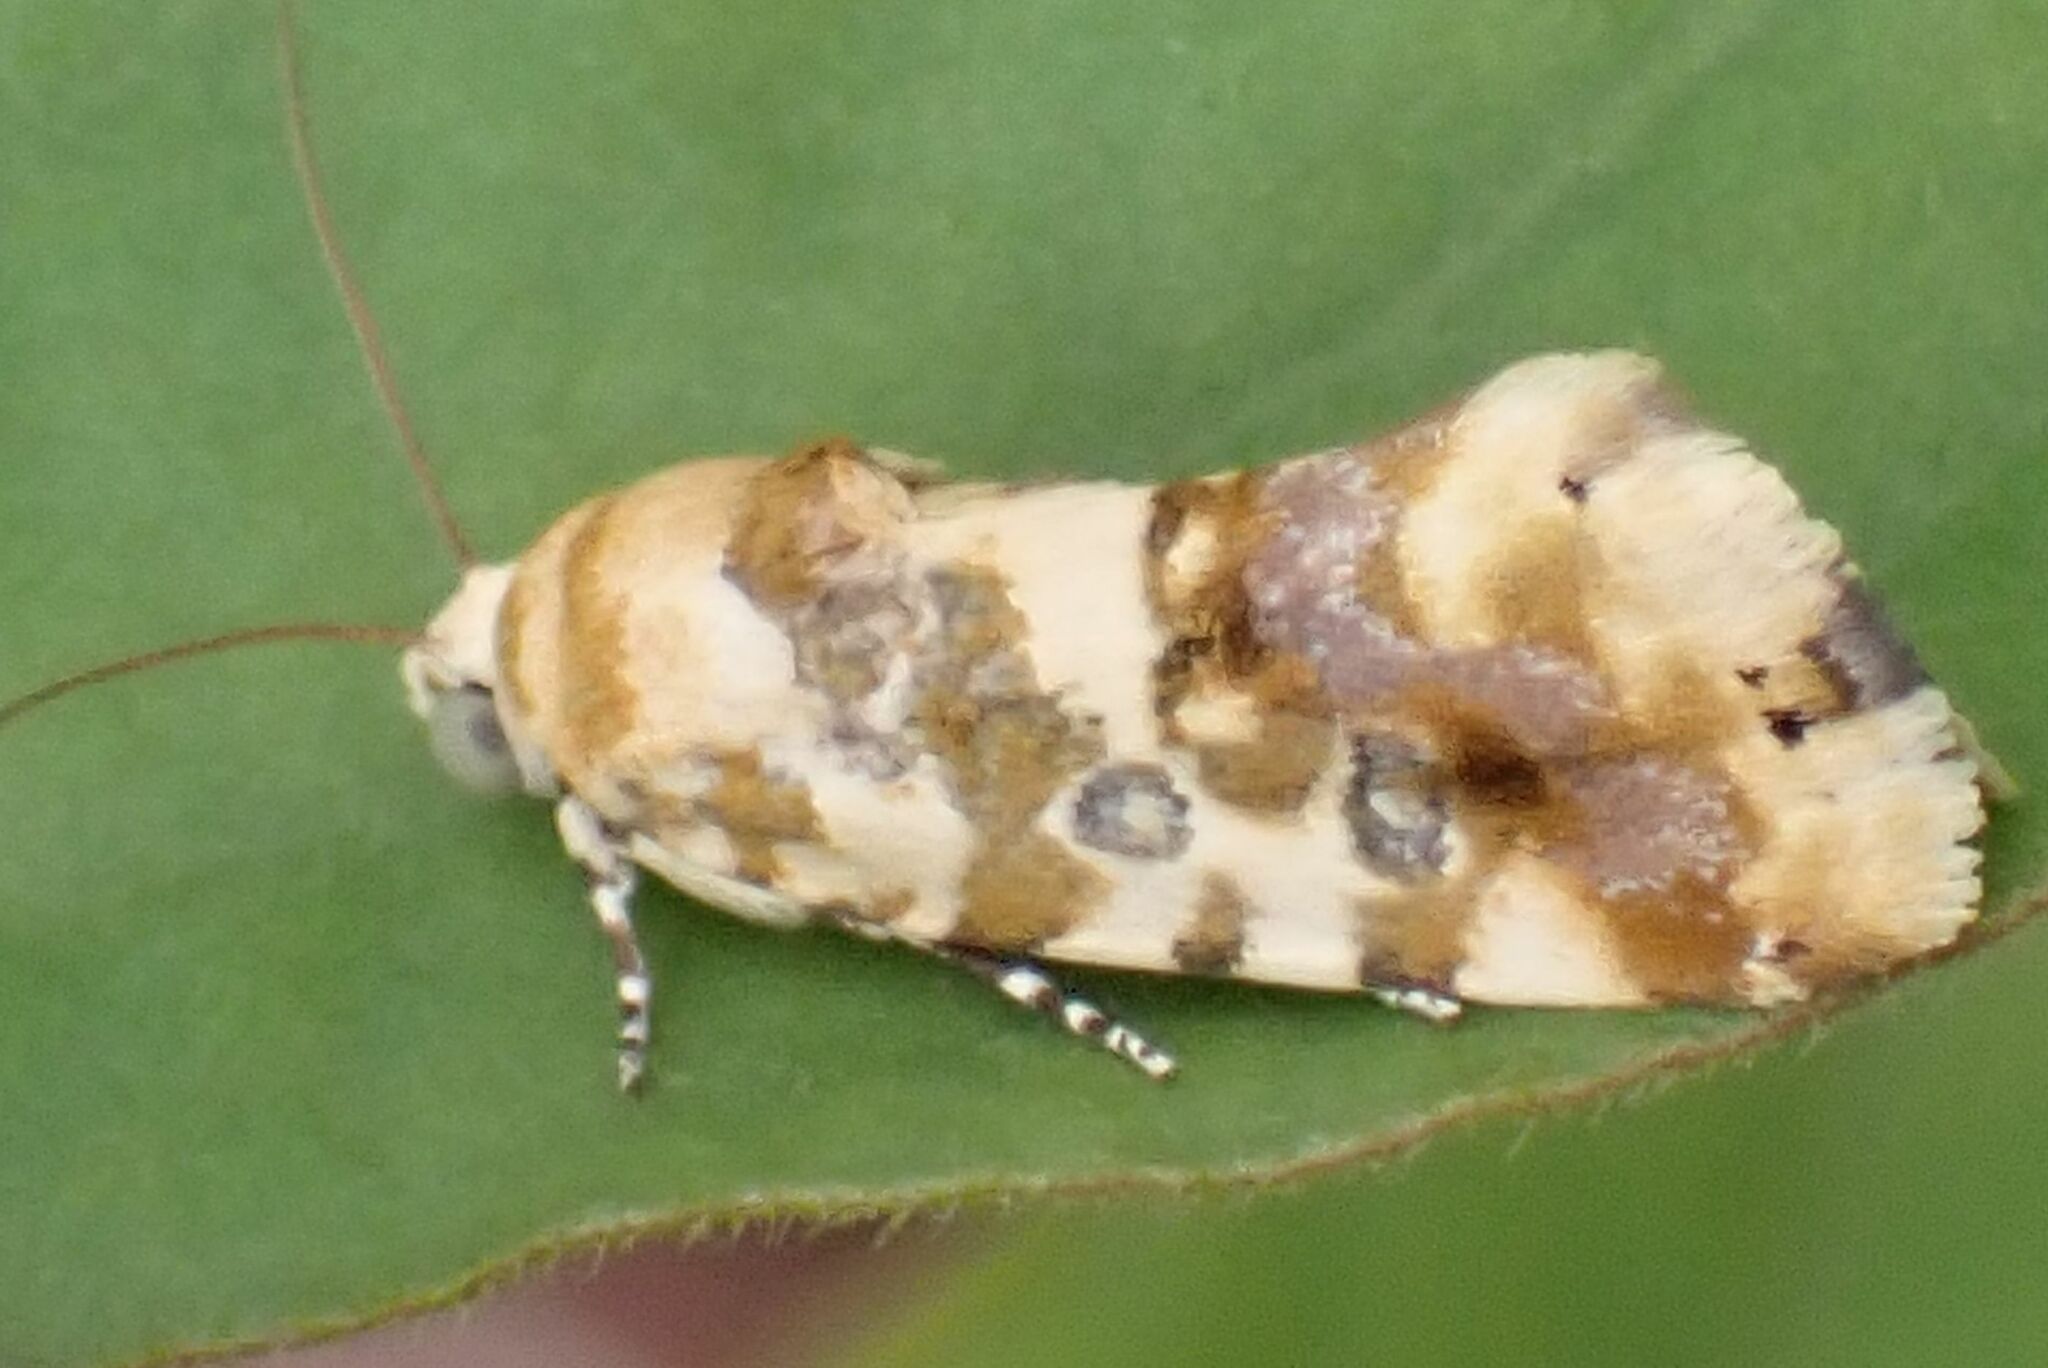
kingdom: Animalia
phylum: Arthropoda
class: Insecta
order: Lepidoptera
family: Noctuidae
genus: Acontia
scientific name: Acontia zelleri
